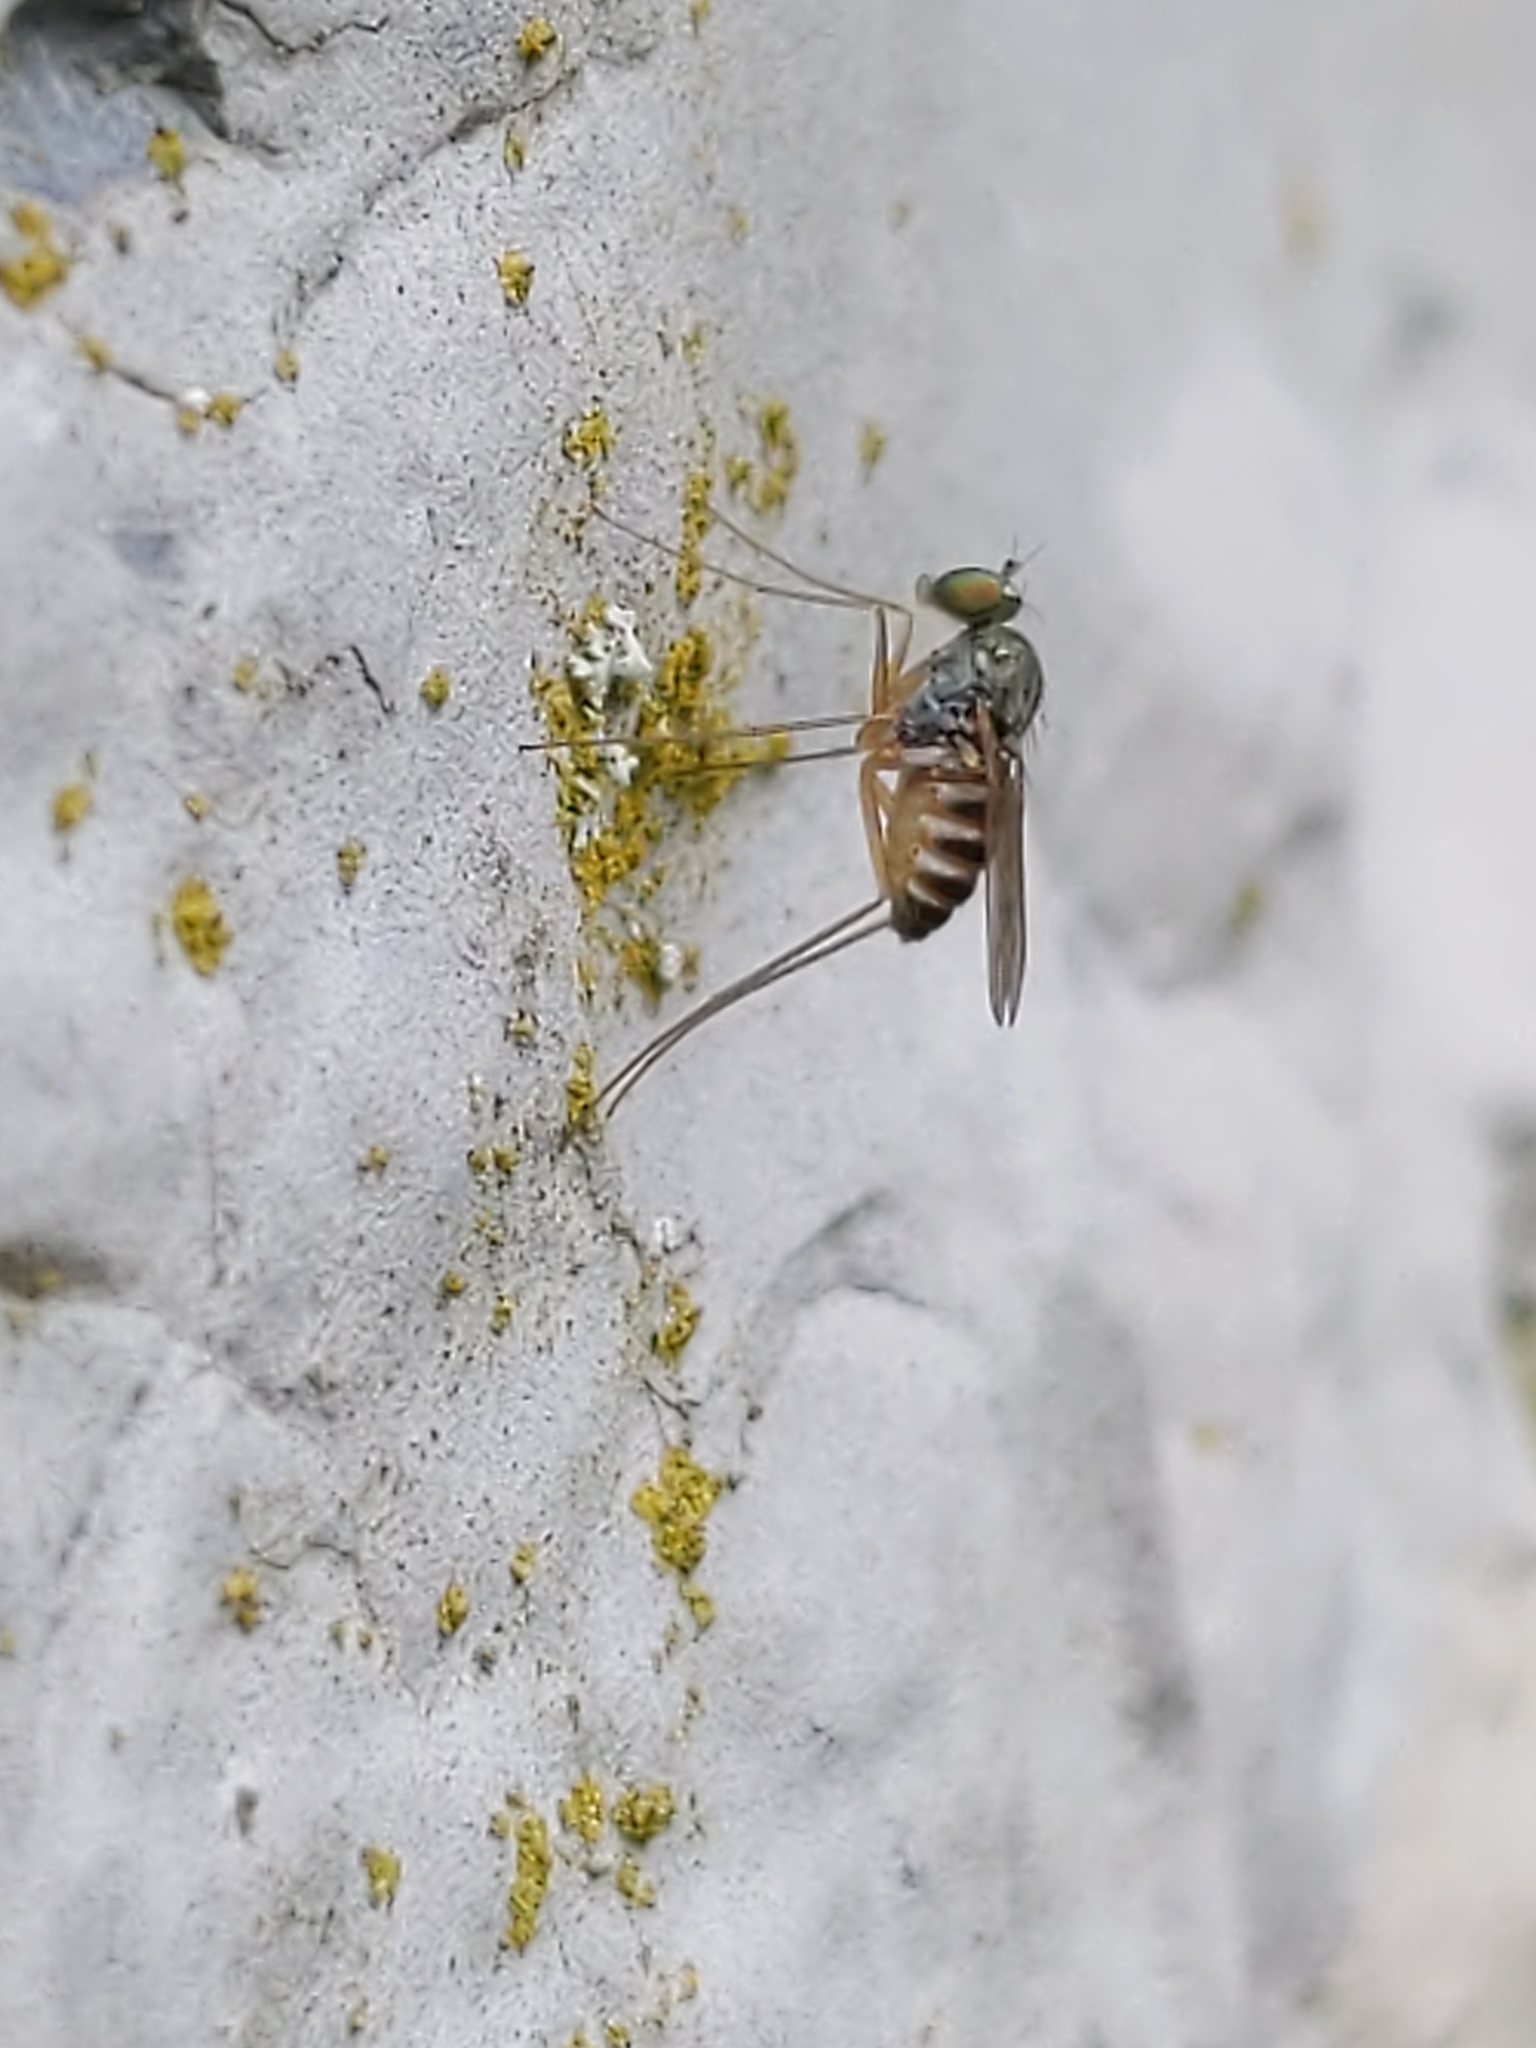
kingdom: Animalia
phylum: Arthropoda
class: Insecta
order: Diptera
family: Dolichopodidae
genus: Dactylomyia
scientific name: Dactylomyia lateralis
